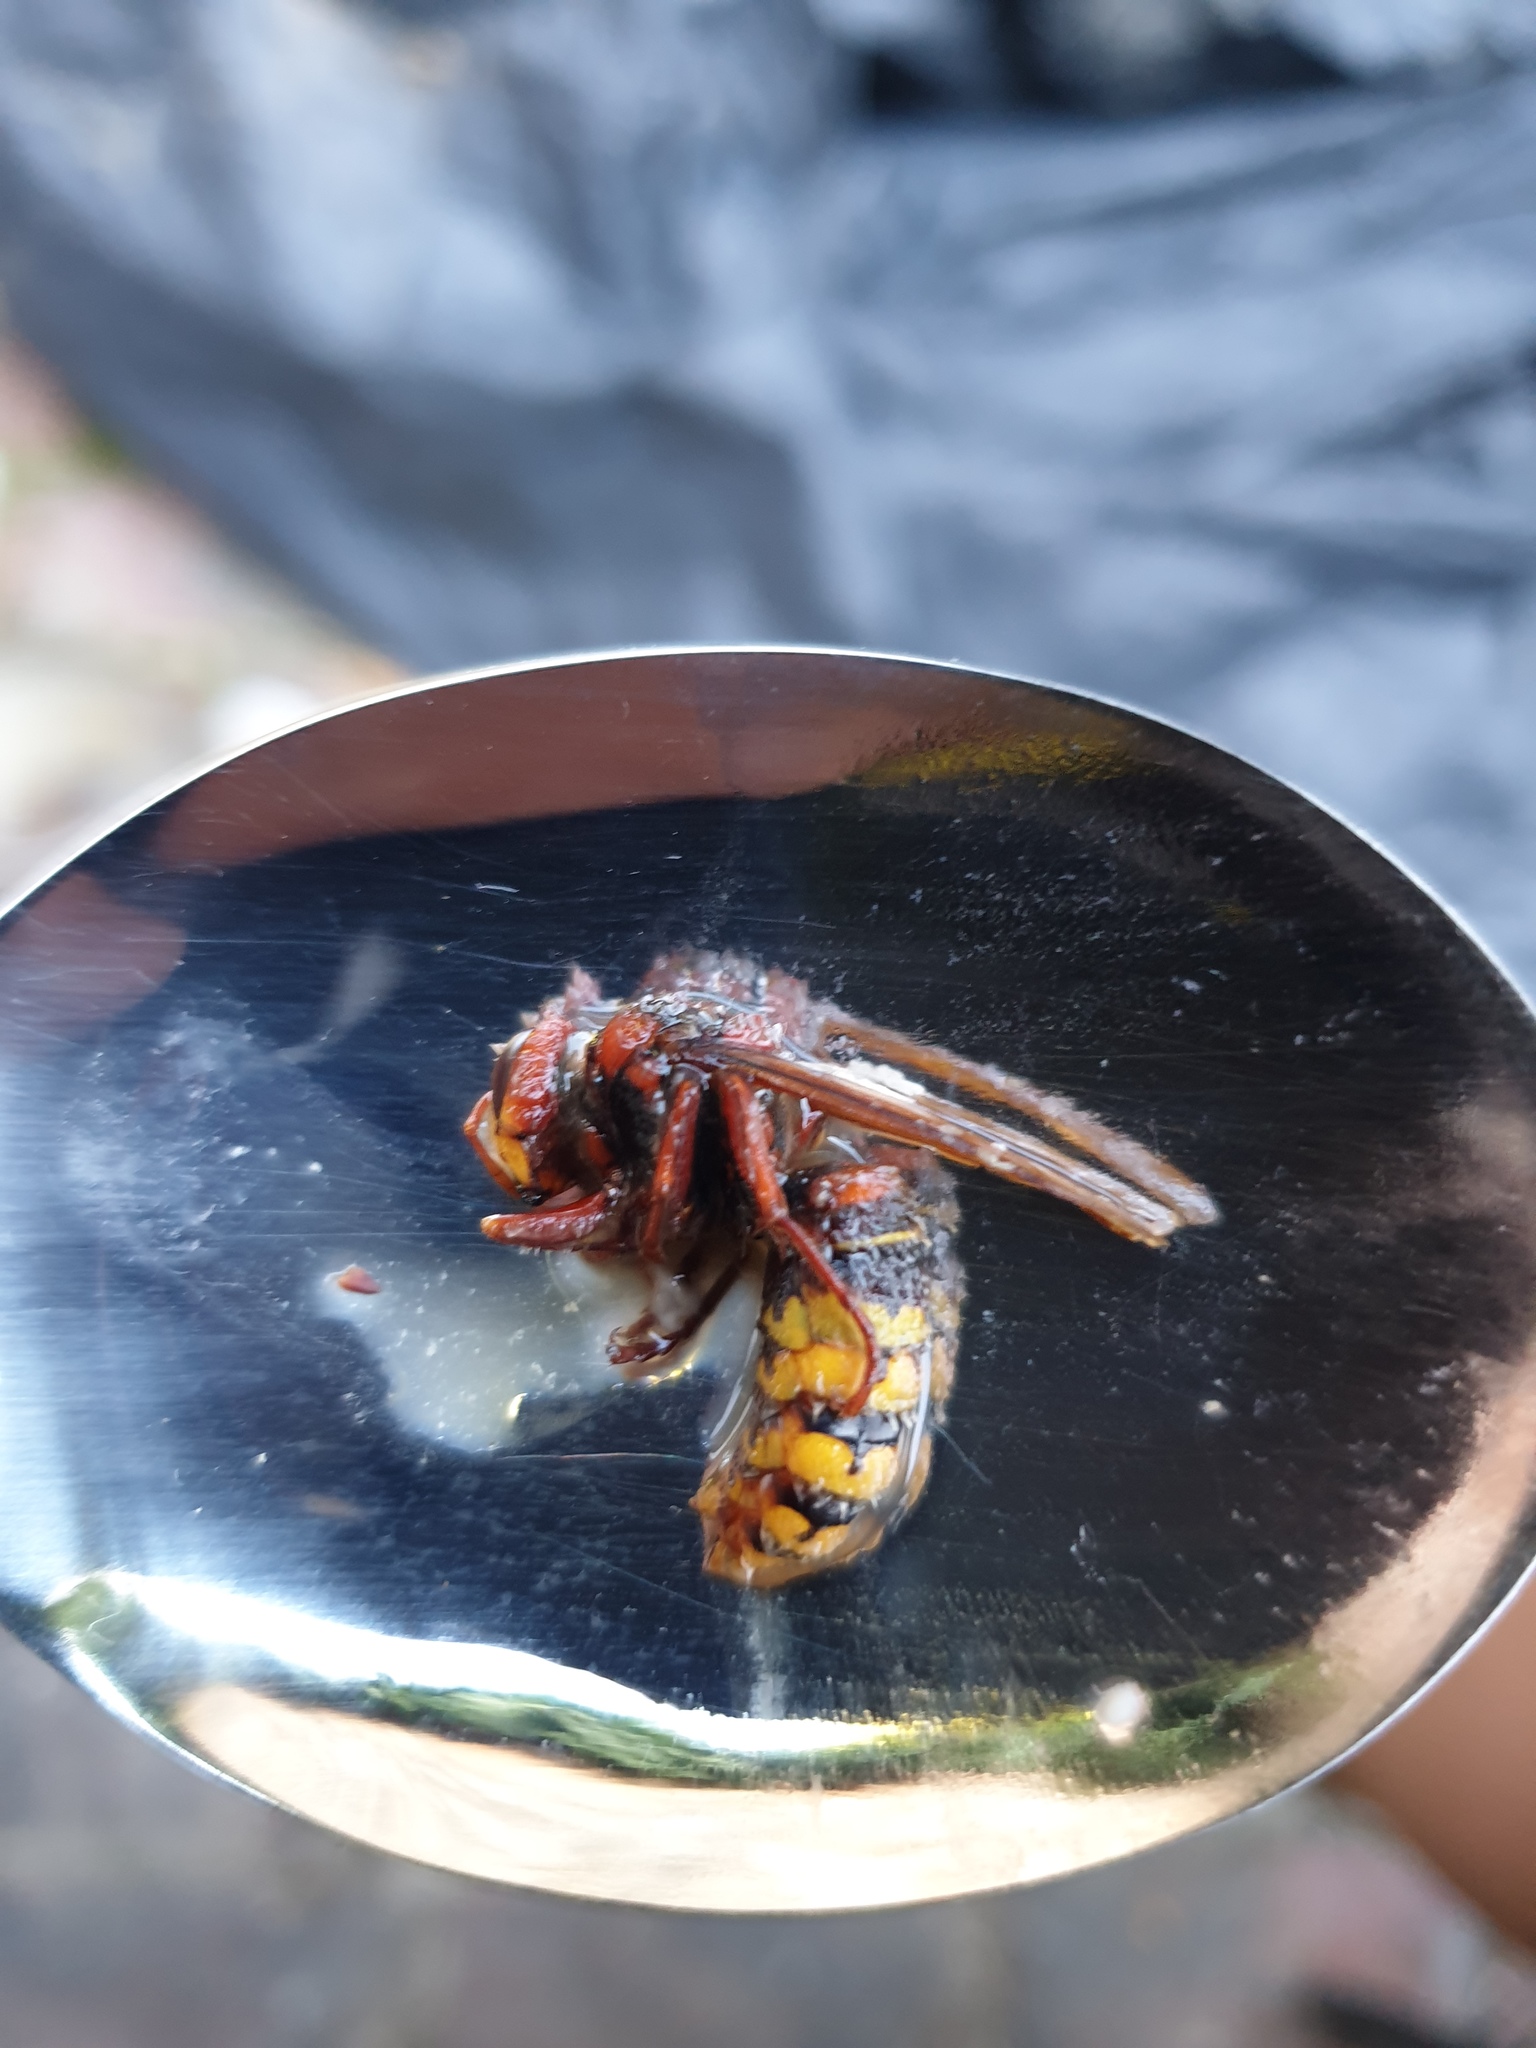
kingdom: Animalia
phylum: Arthropoda
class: Insecta
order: Hymenoptera
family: Vespidae
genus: Vespa
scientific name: Vespa crabro
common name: Hornet
